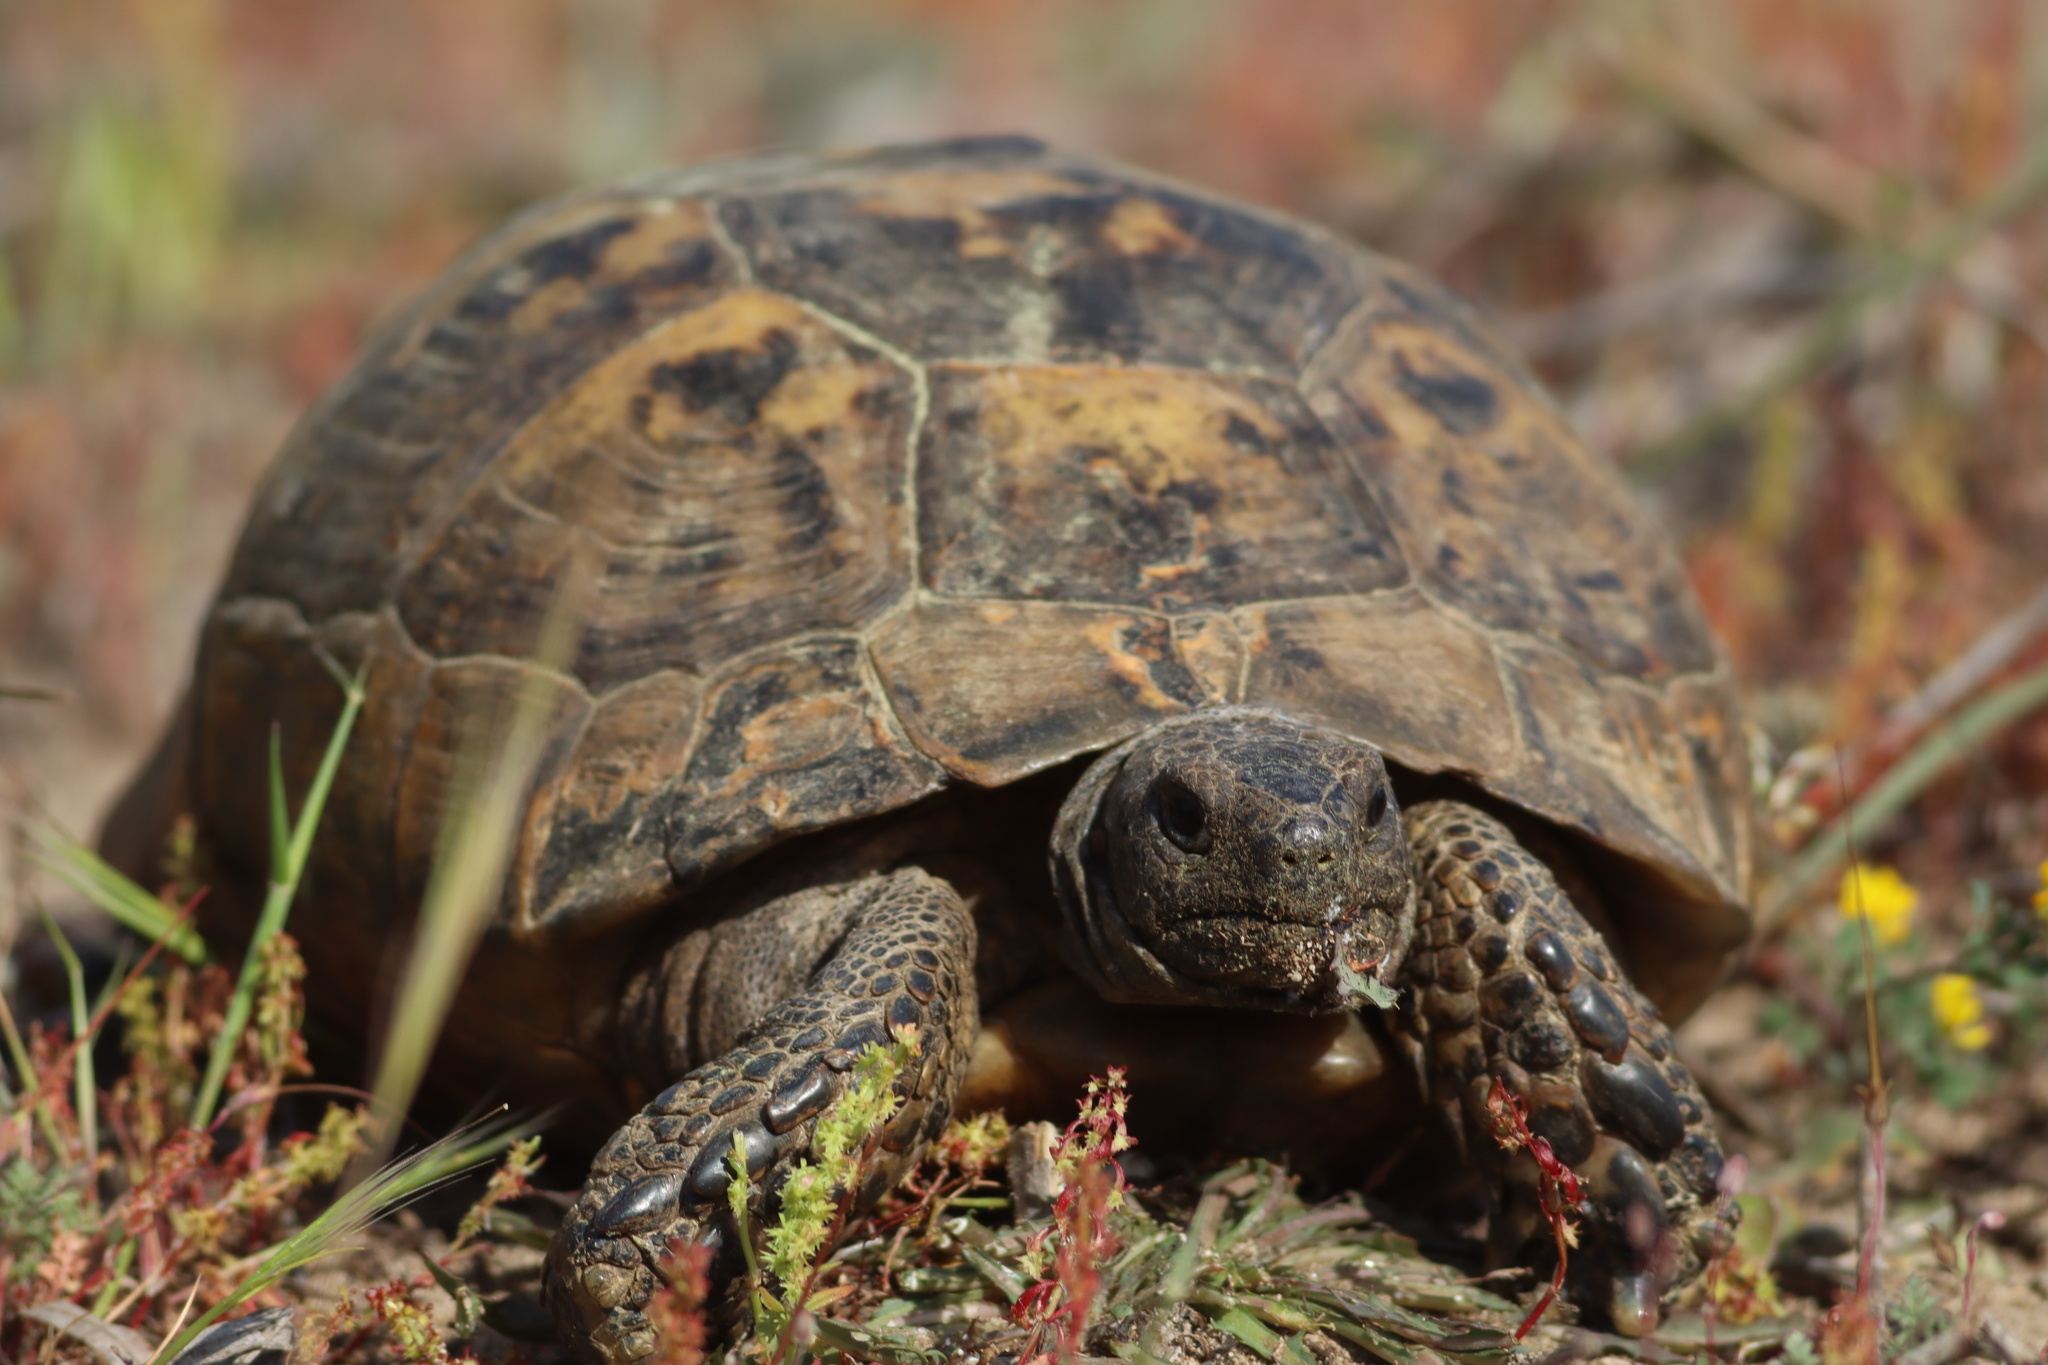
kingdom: Animalia
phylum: Chordata
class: Testudines
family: Testudinidae
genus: Testudo
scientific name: Testudo graeca
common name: Common tortoise
